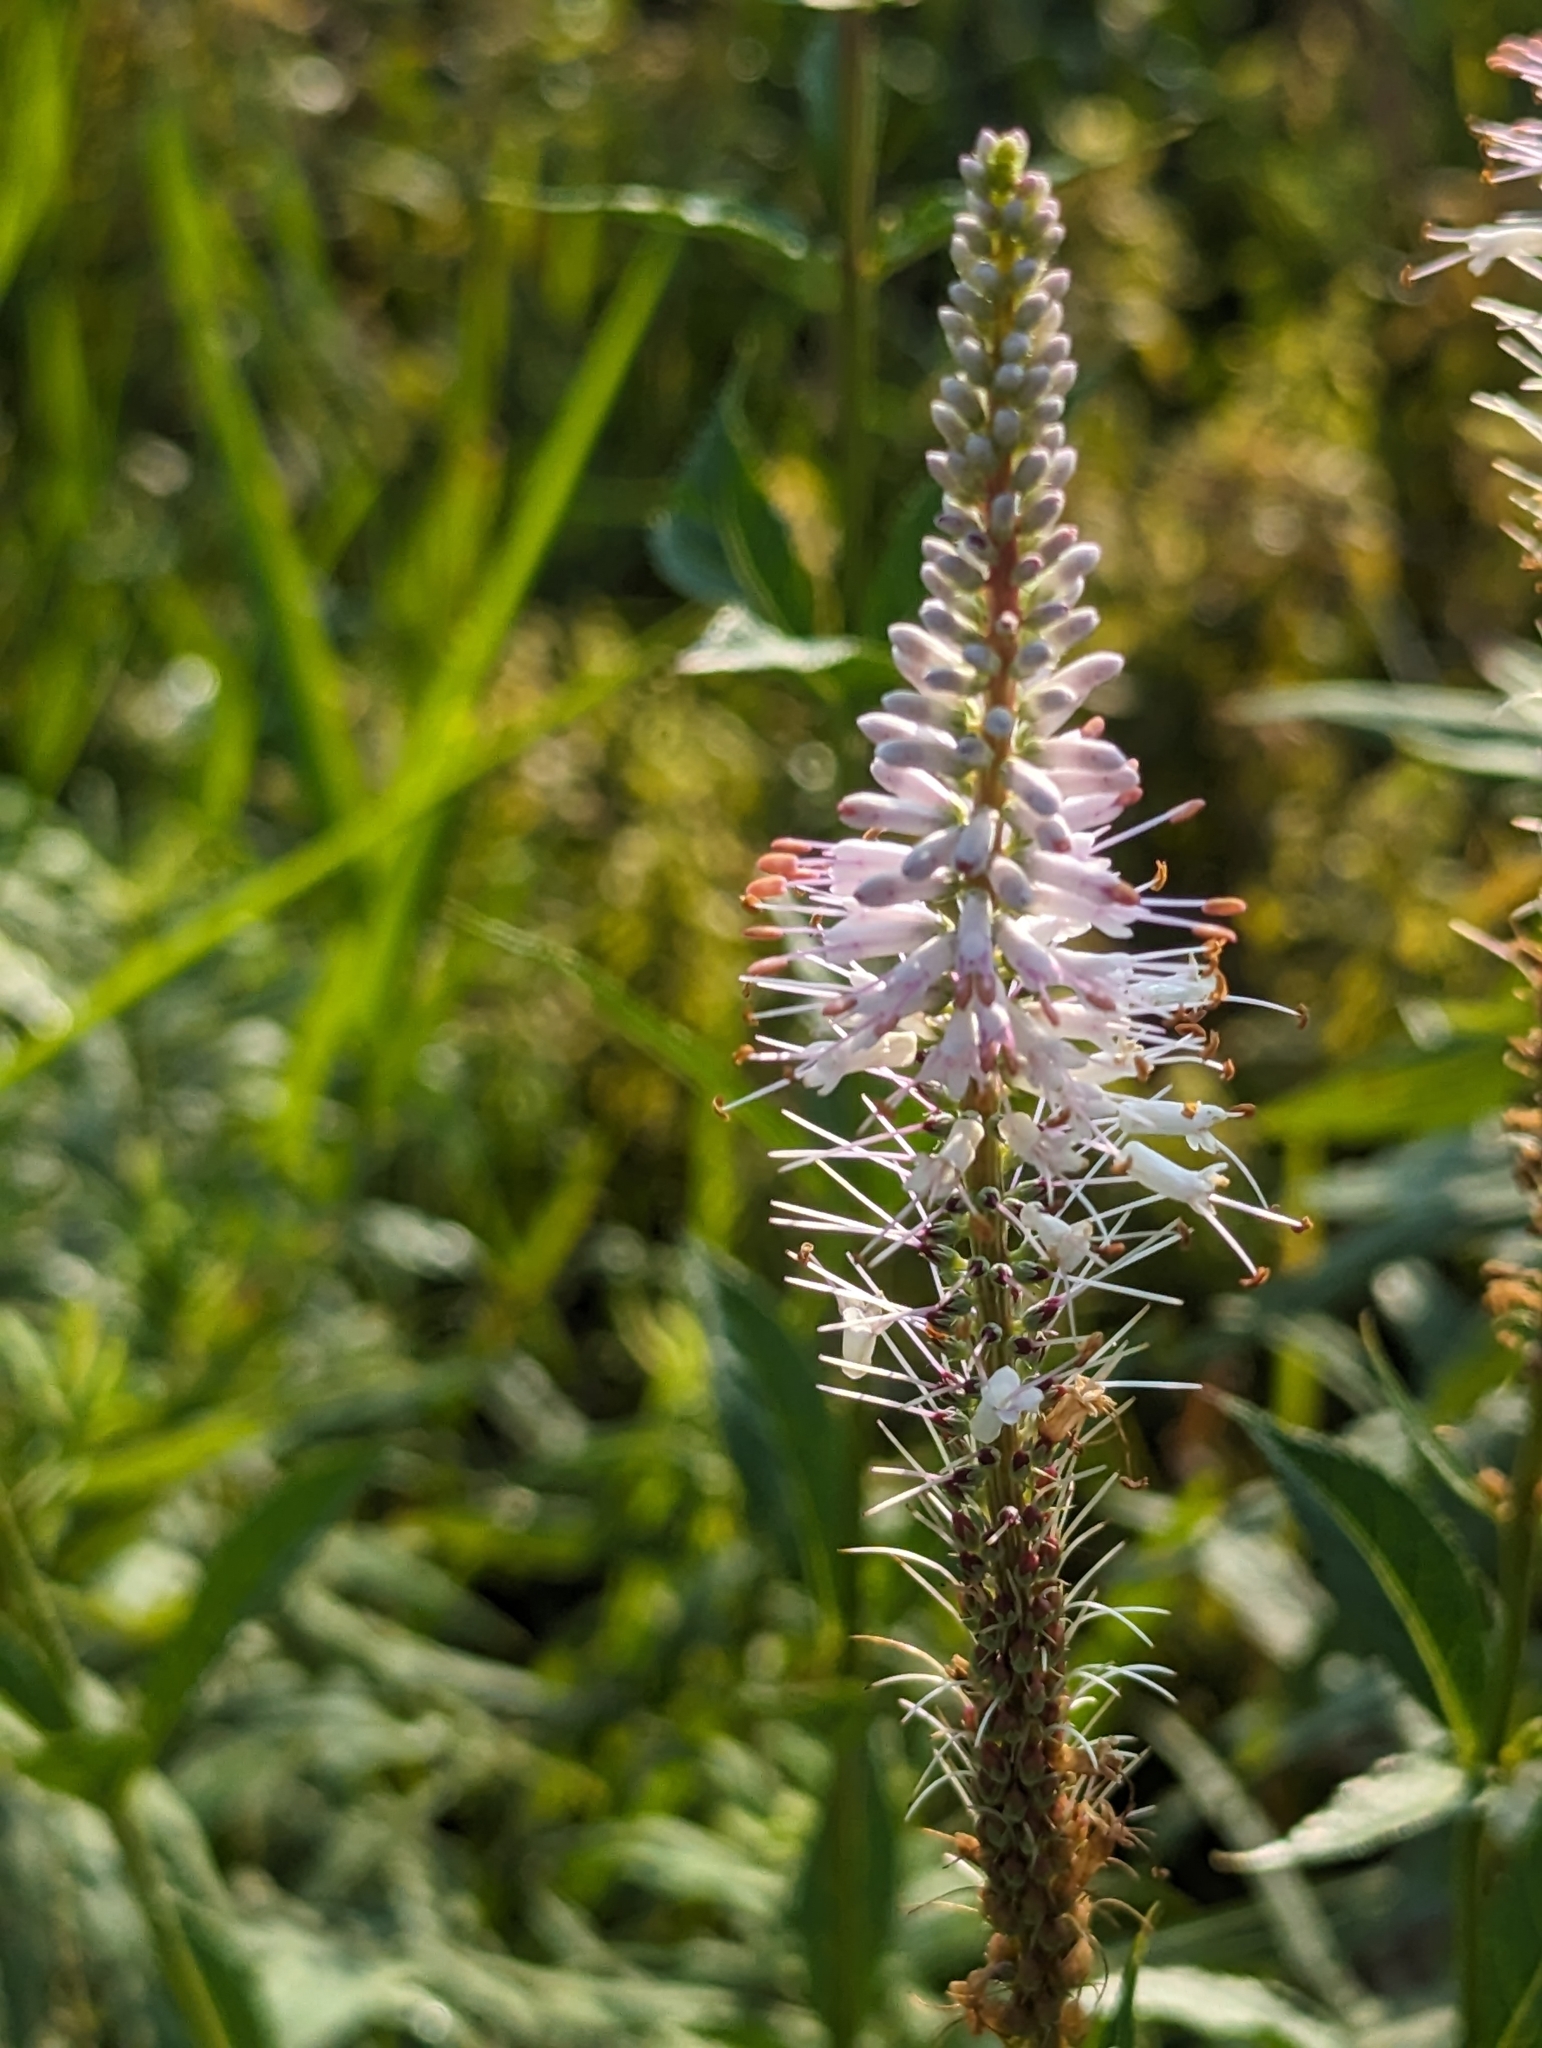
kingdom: Plantae
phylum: Tracheophyta
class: Magnoliopsida
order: Lamiales
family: Plantaginaceae
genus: Veronicastrum
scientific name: Veronicastrum virginicum
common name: Blackroot
